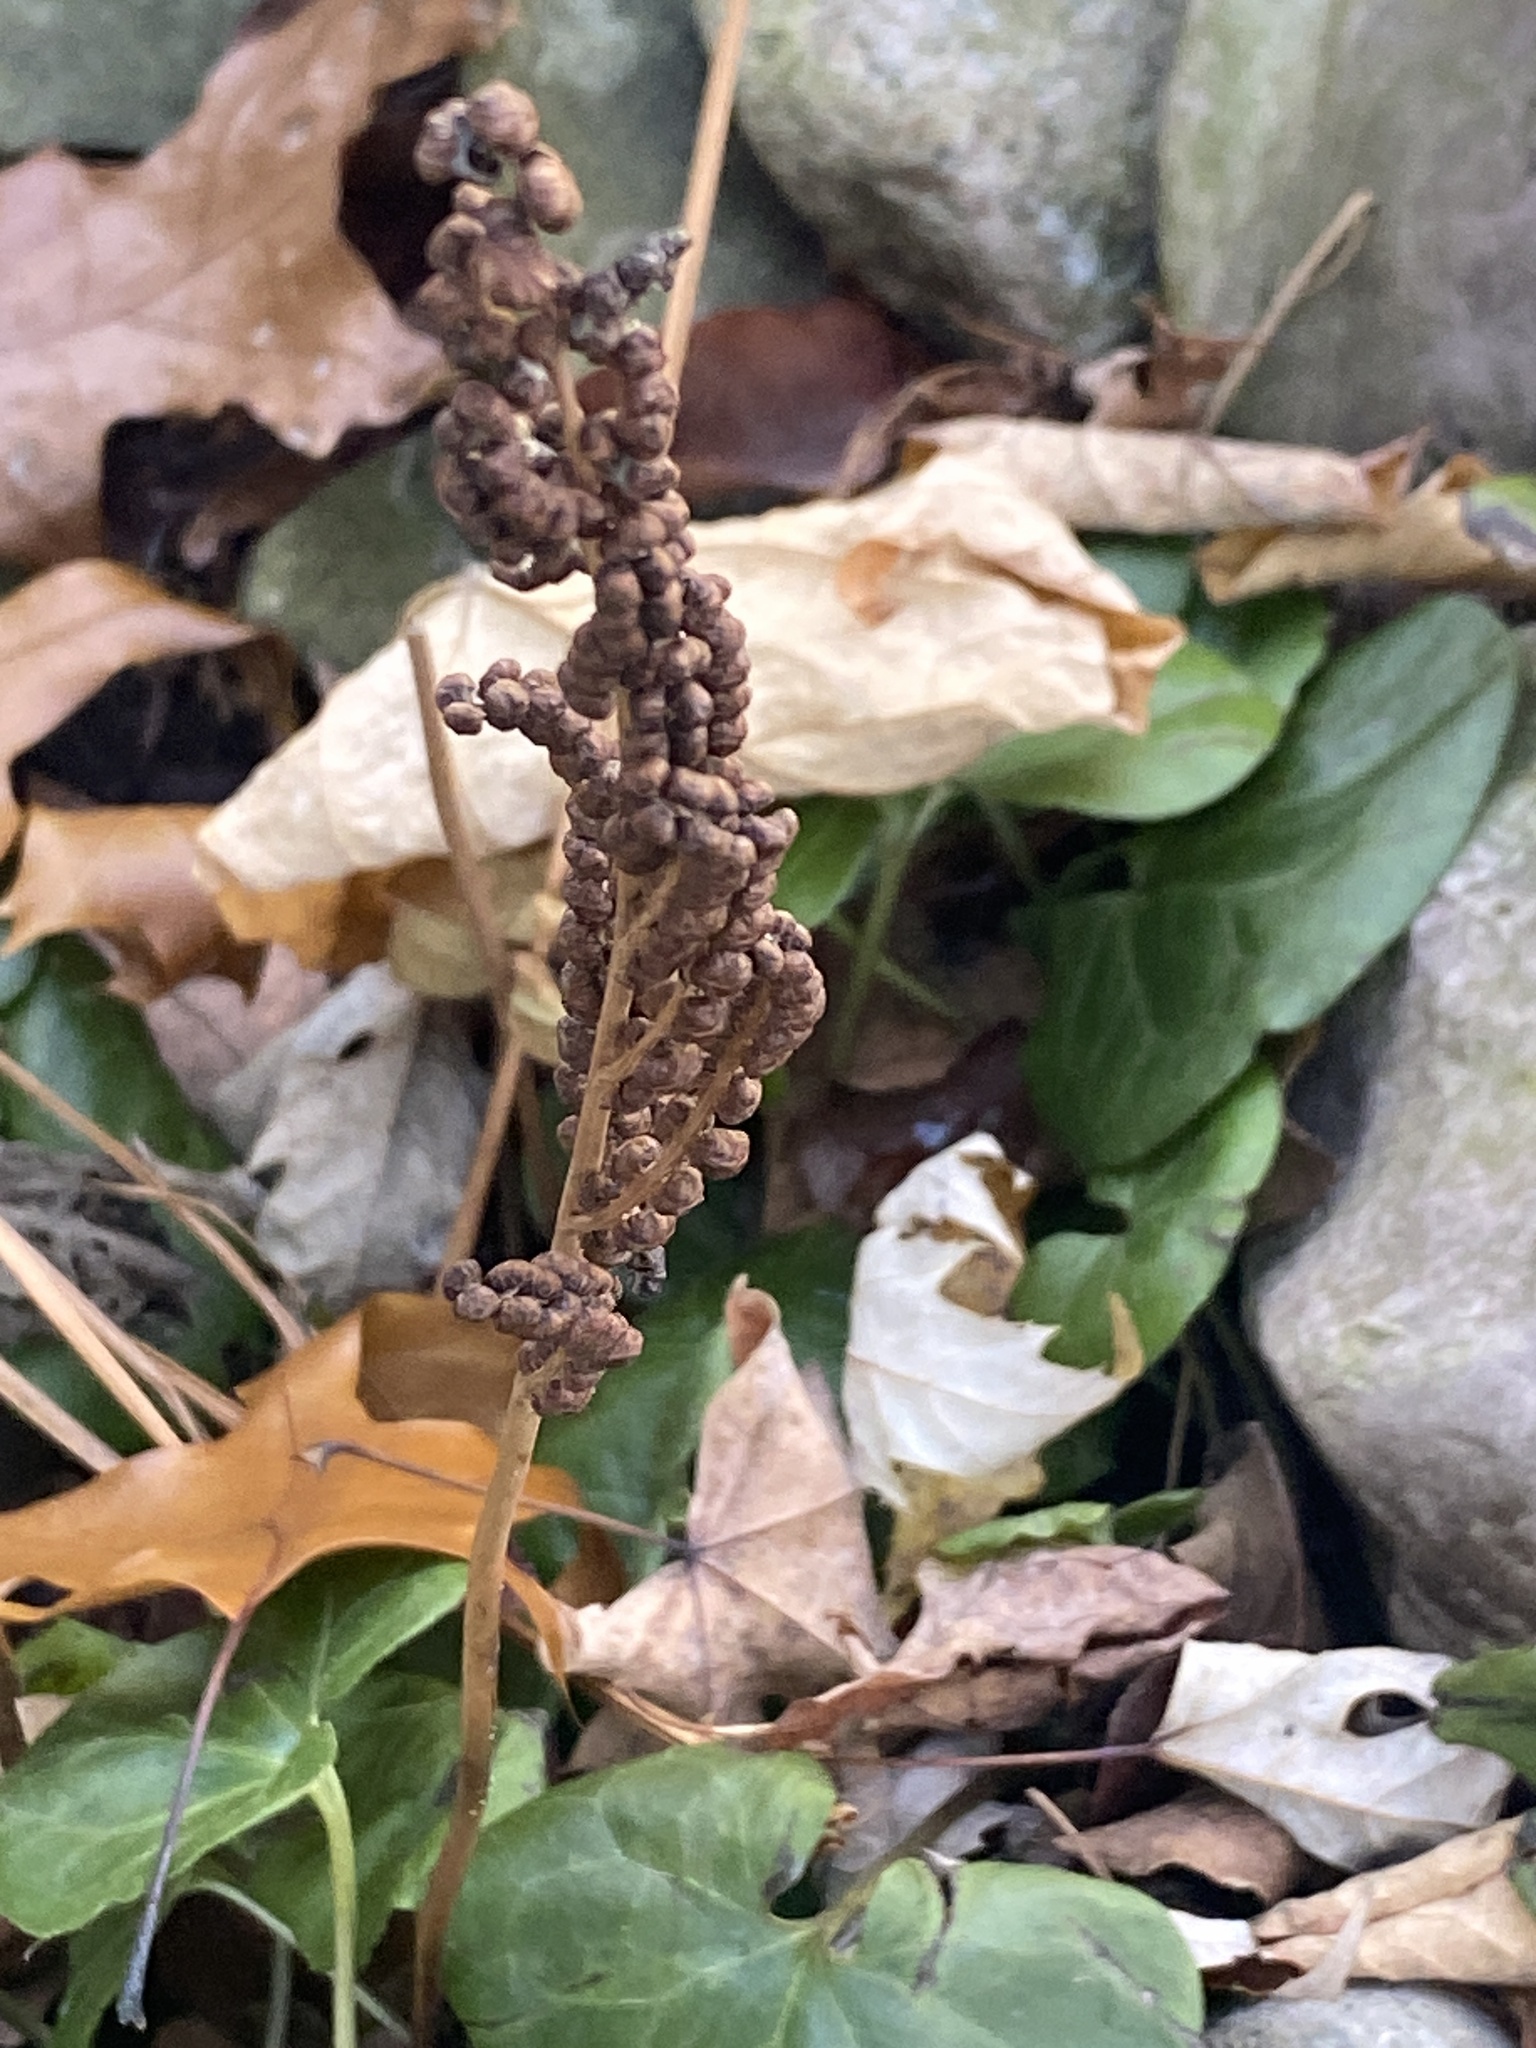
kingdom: Plantae
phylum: Tracheophyta
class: Polypodiopsida
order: Polypodiales
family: Onocleaceae
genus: Onoclea
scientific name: Onoclea sensibilis
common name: Sensitive fern
